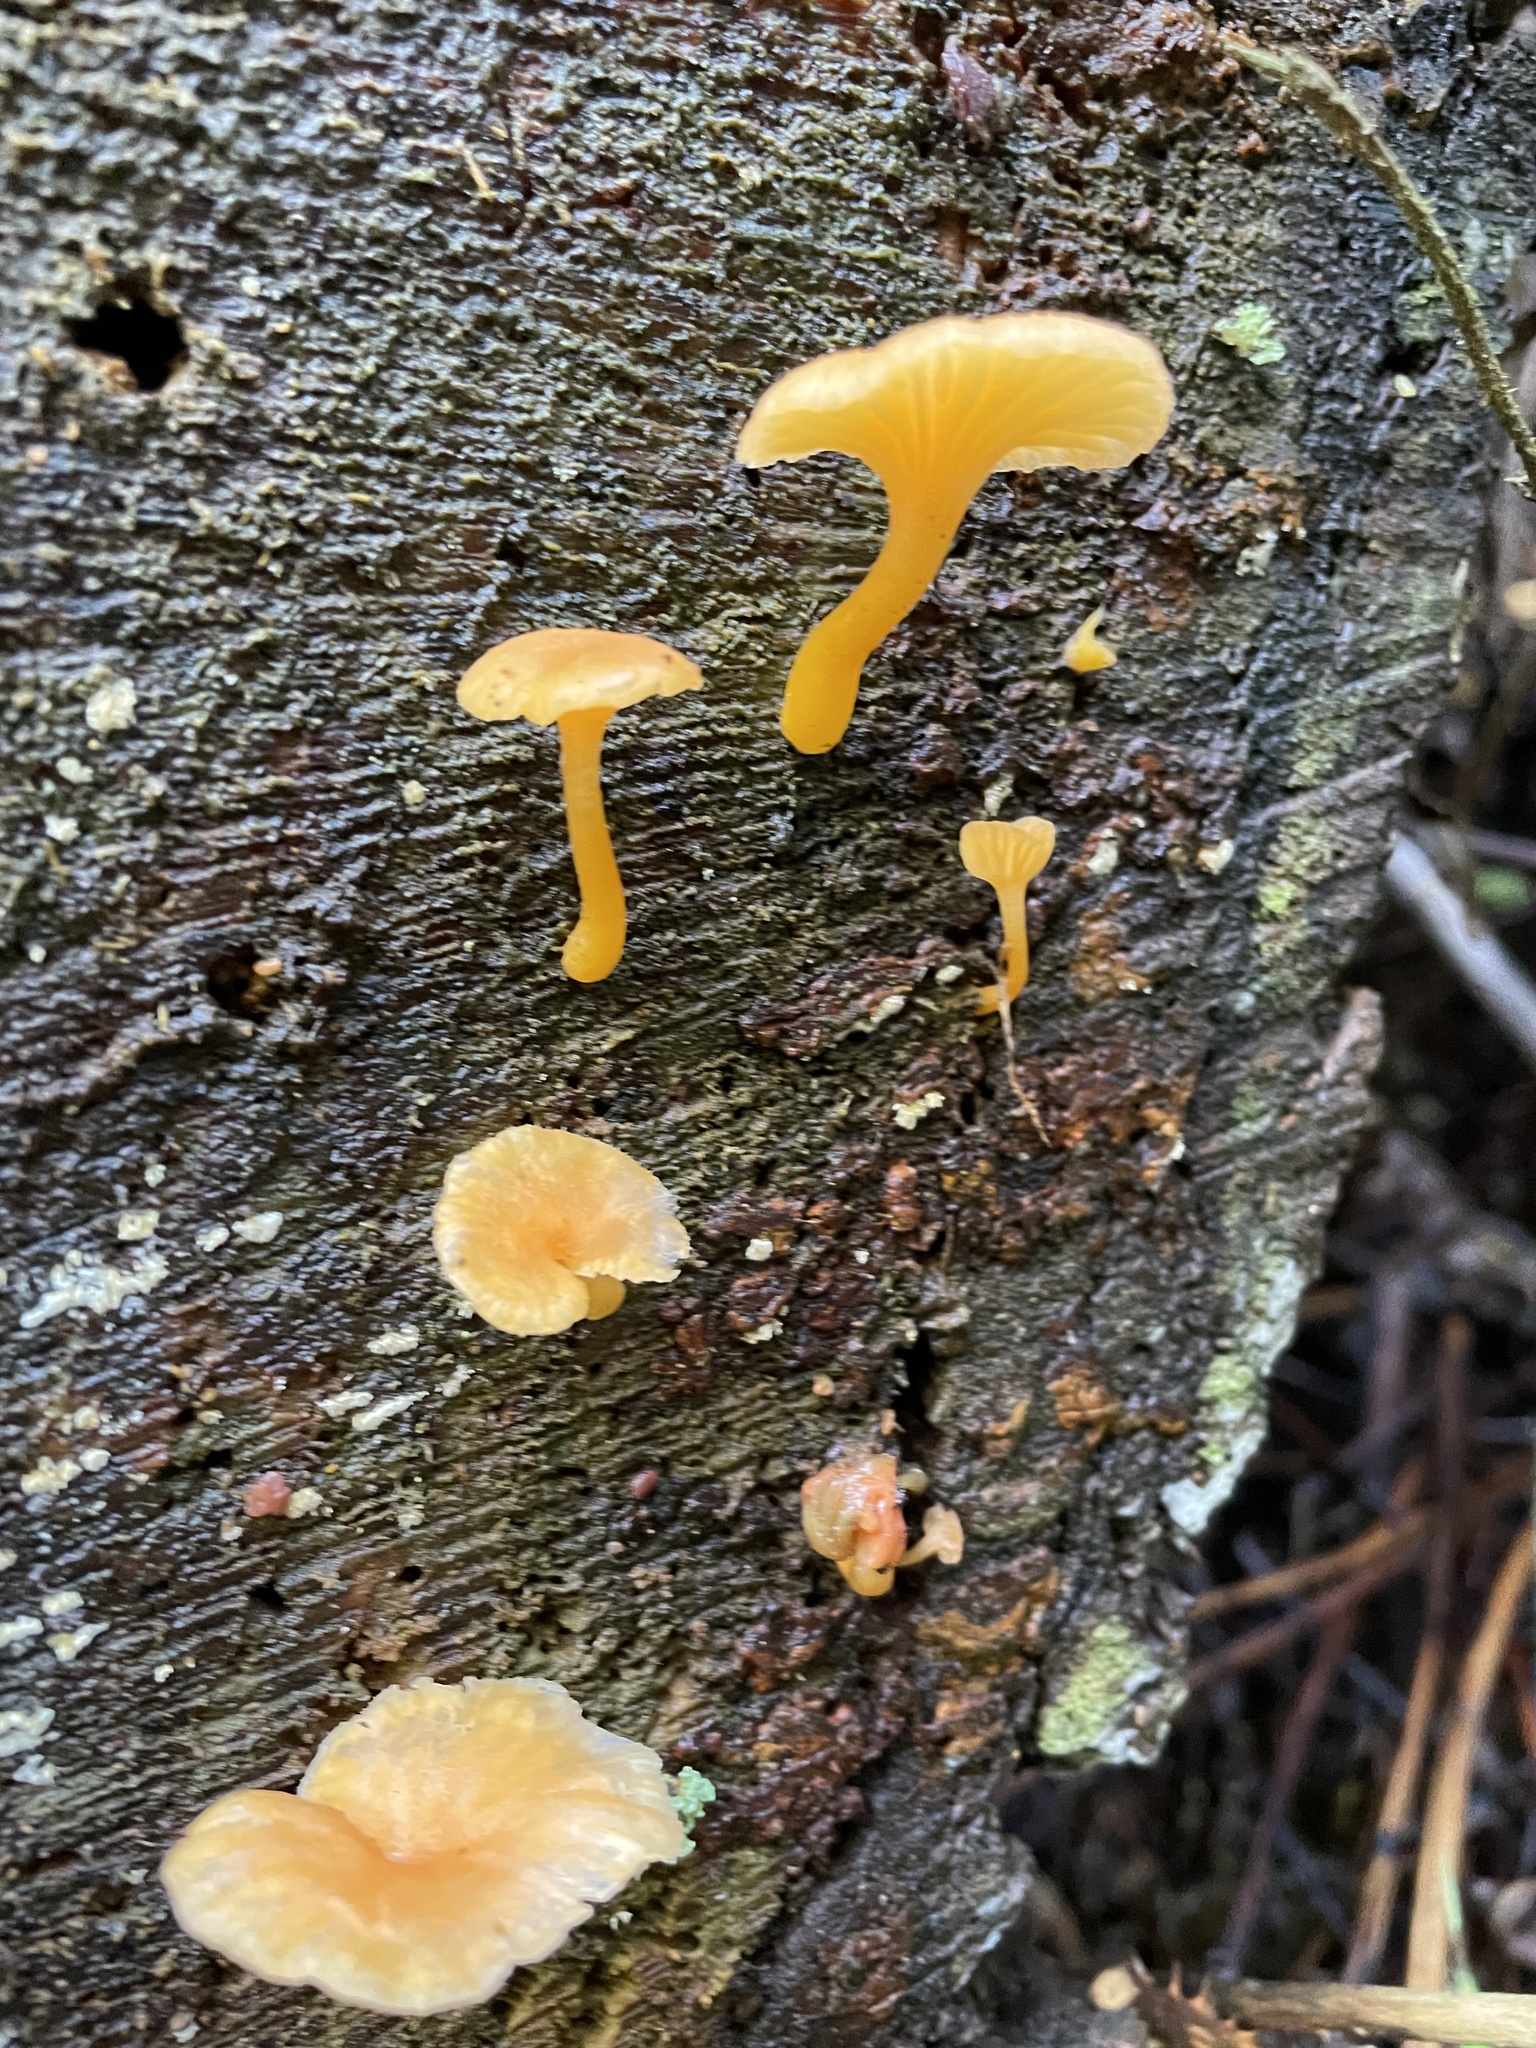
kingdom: Fungi
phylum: Basidiomycota
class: Agaricomycetes
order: Agaricales
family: Hygrophoraceae
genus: Chrysomphalina
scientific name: Chrysomphalina aurantiaca
